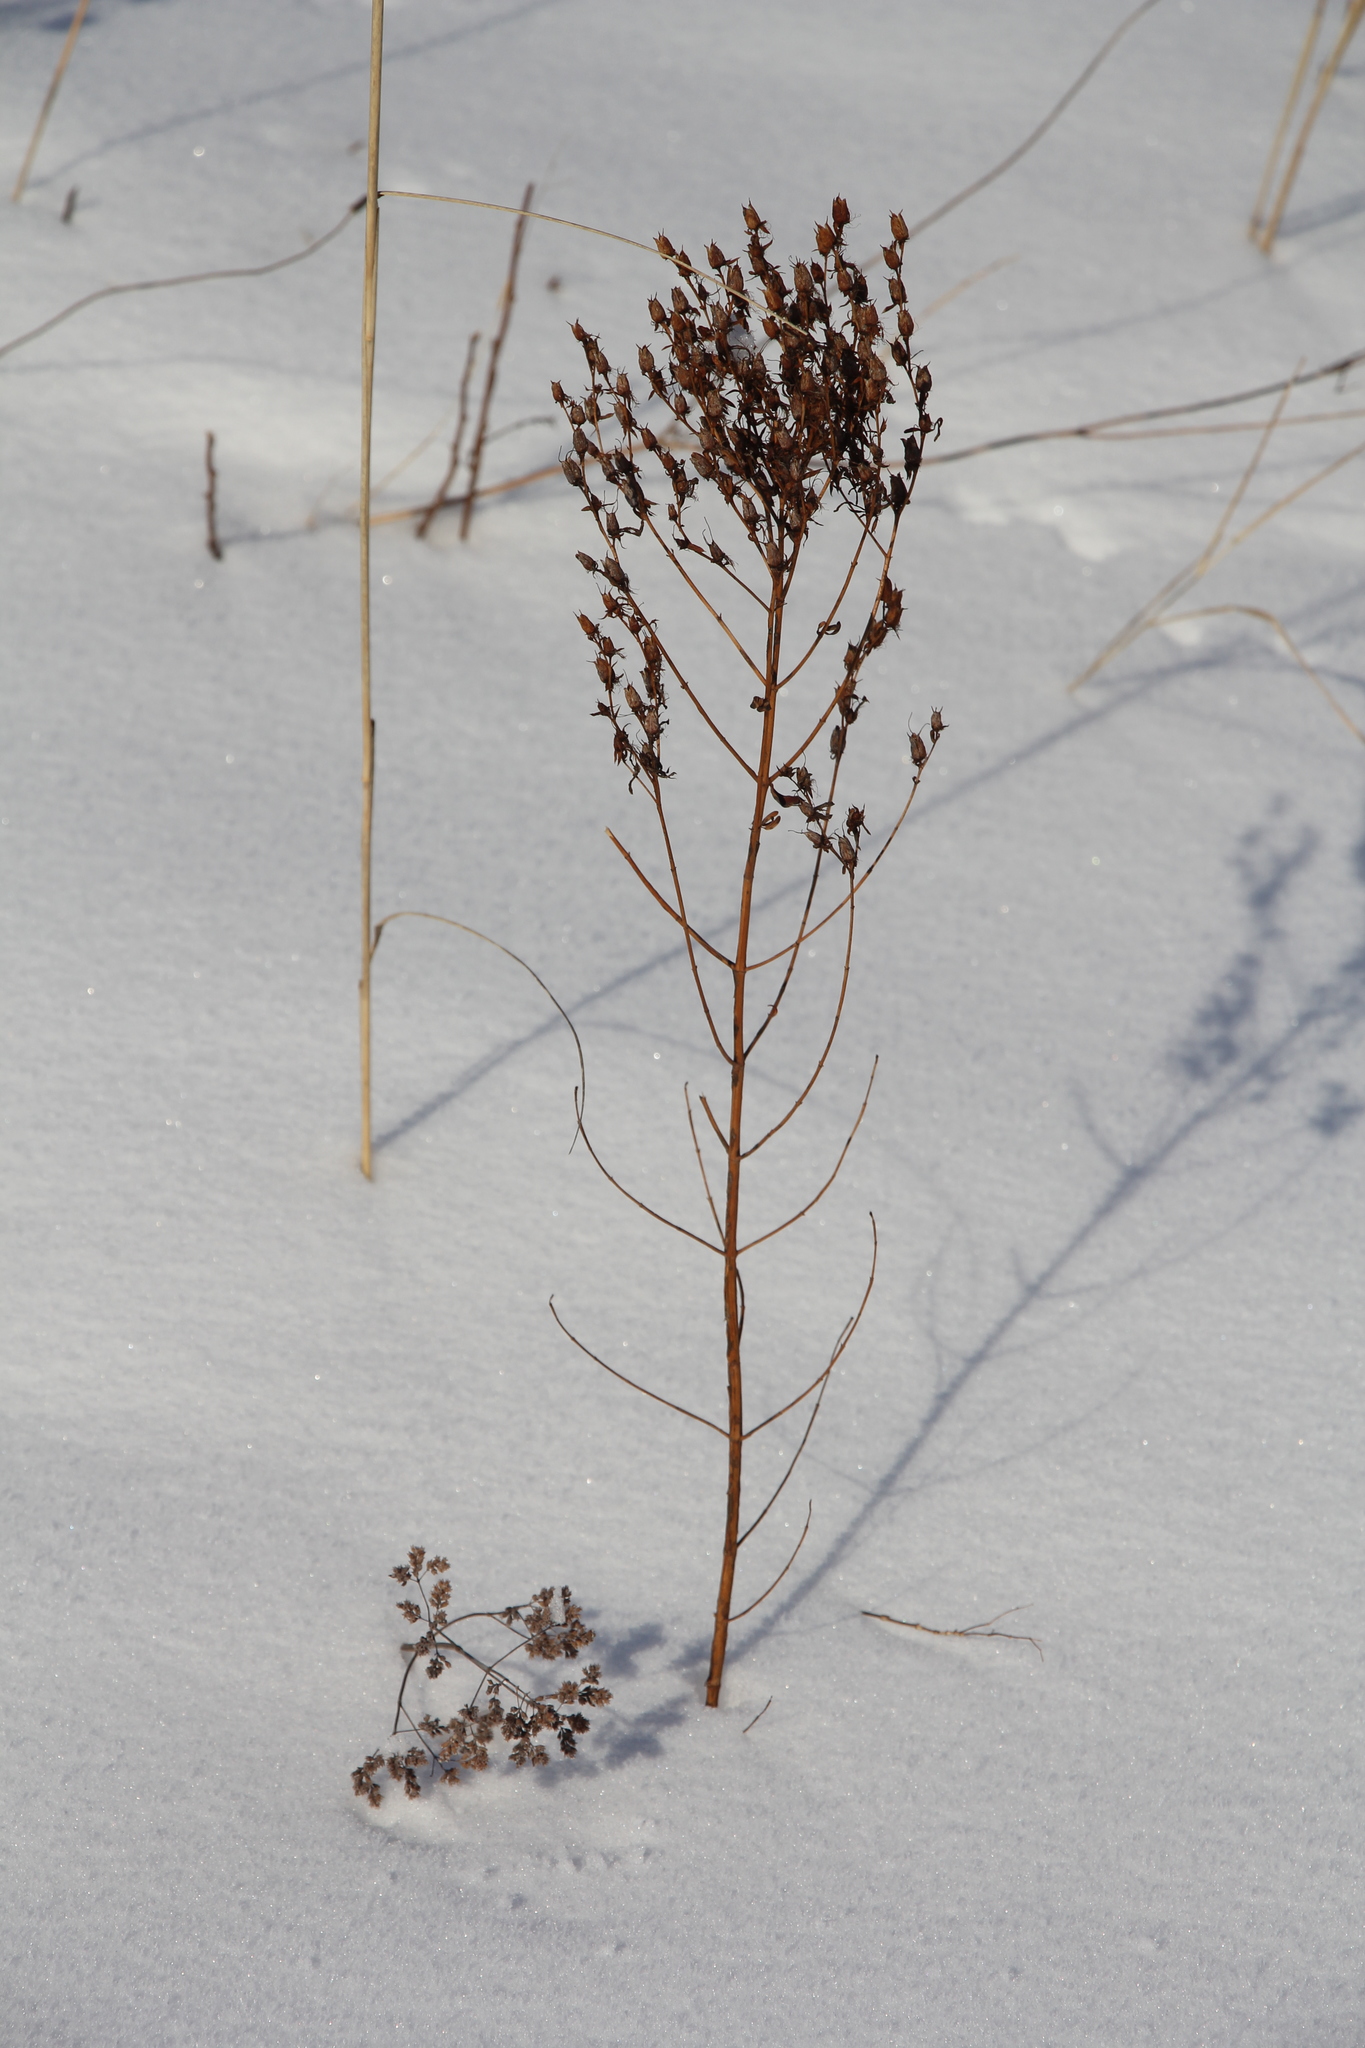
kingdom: Plantae
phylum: Tracheophyta
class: Magnoliopsida
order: Malpighiales
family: Hypericaceae
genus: Hypericum
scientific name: Hypericum perforatum
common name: Common st. johnswort
